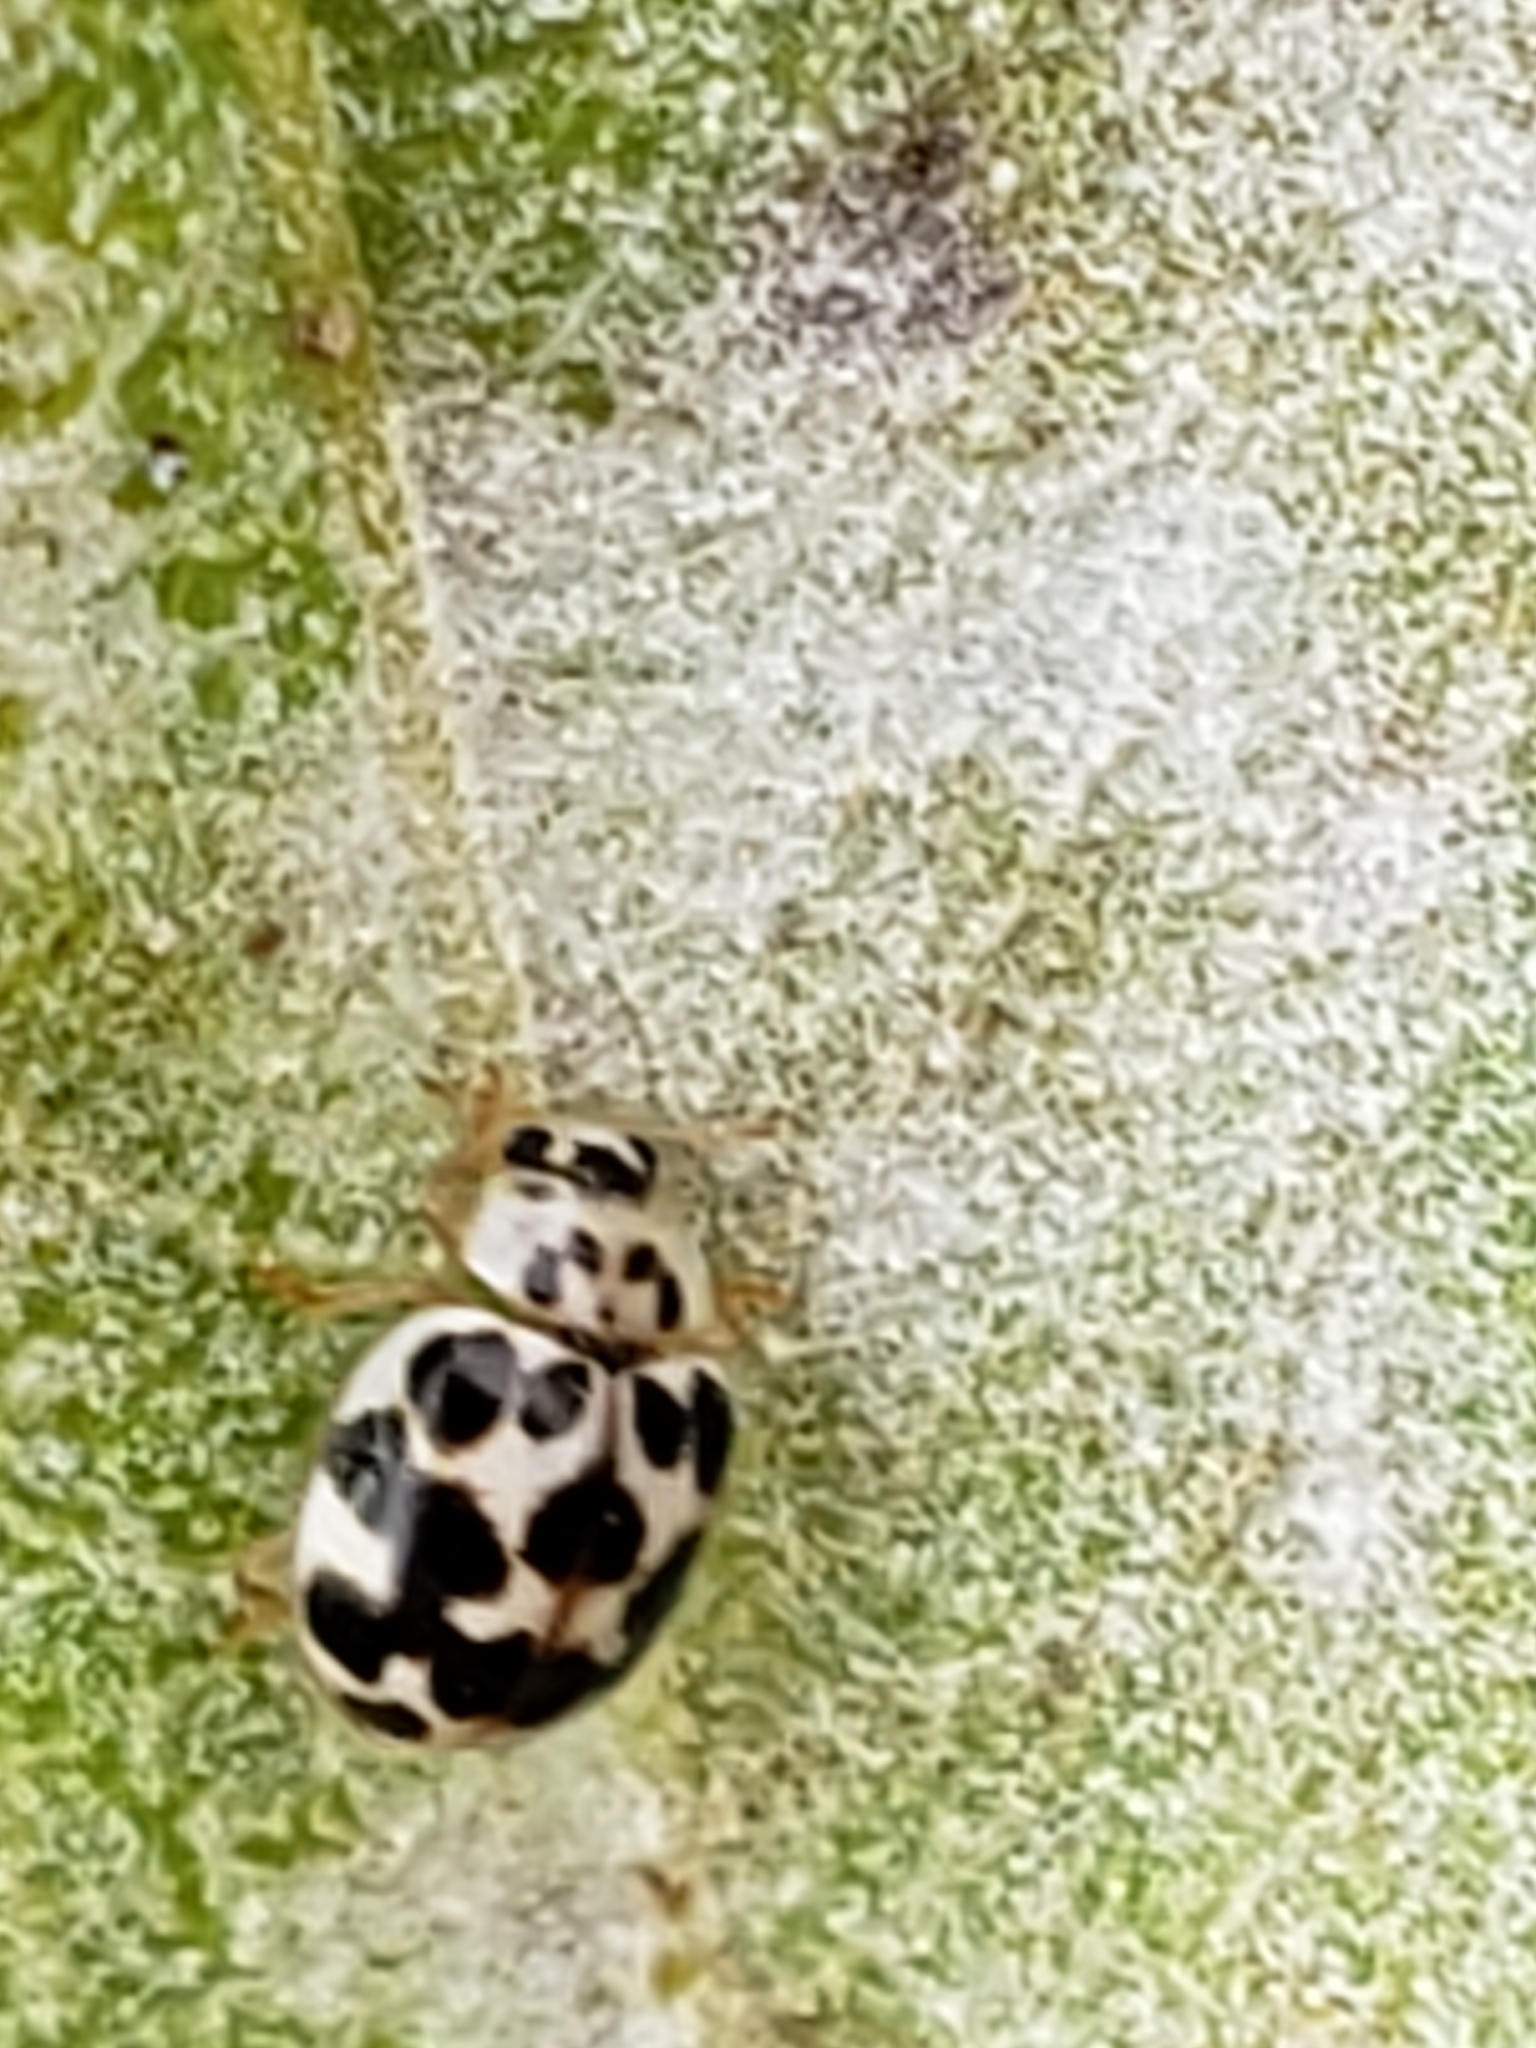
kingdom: Animalia
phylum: Arthropoda
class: Insecta
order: Coleoptera
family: Coccinellidae
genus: Psyllobora
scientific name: Psyllobora vigintimaculata
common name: Ladybird beetle
